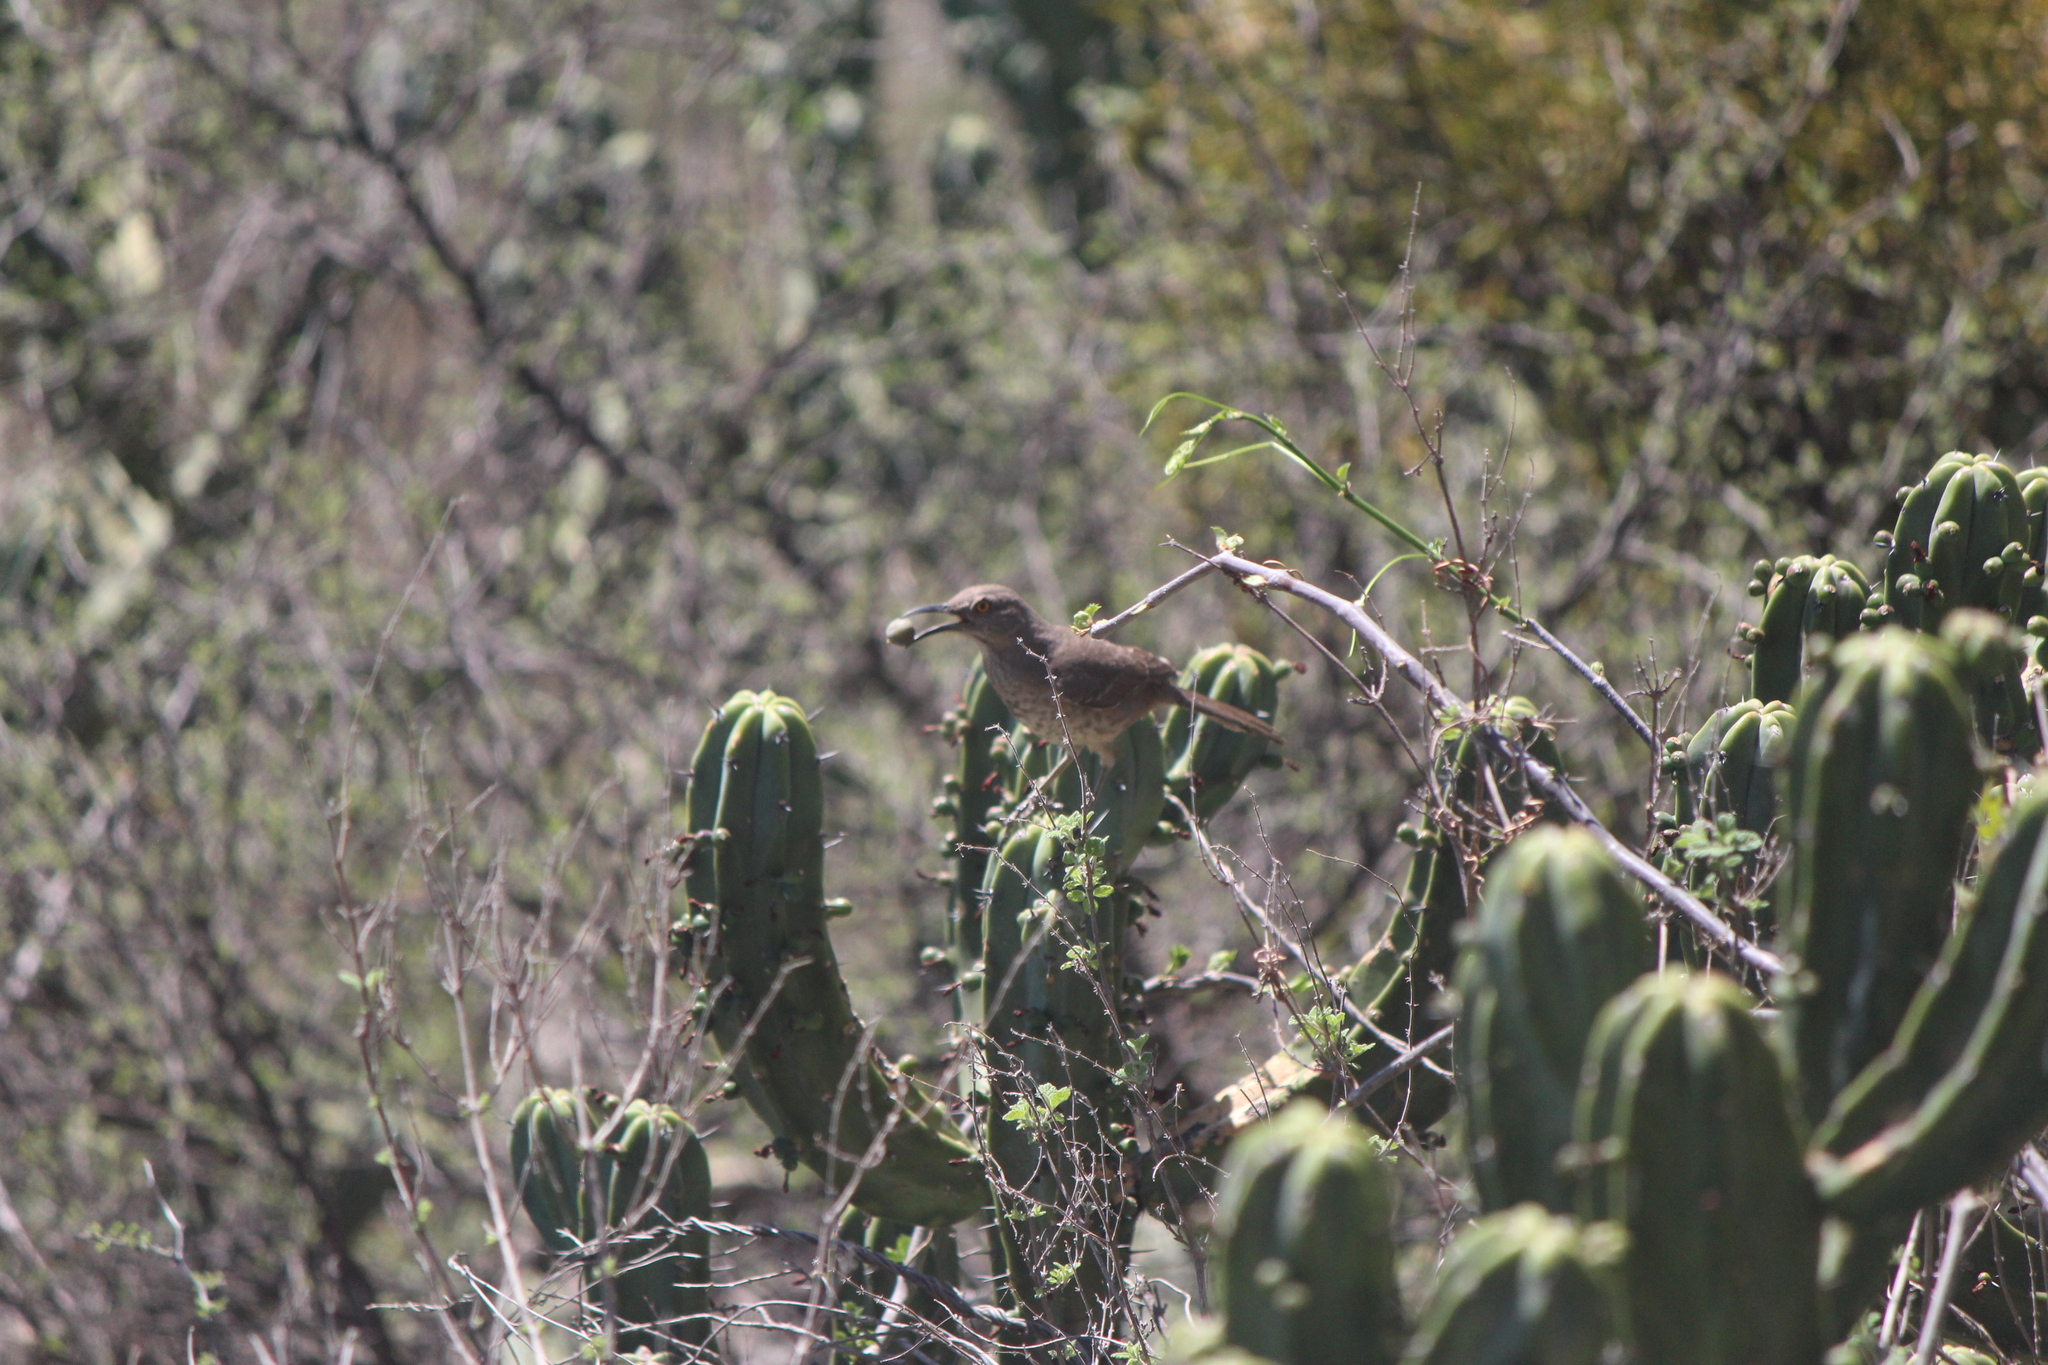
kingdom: Animalia
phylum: Chordata
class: Aves
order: Passeriformes
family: Mimidae
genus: Toxostoma
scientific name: Toxostoma curvirostre
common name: Curve-billed thrasher
